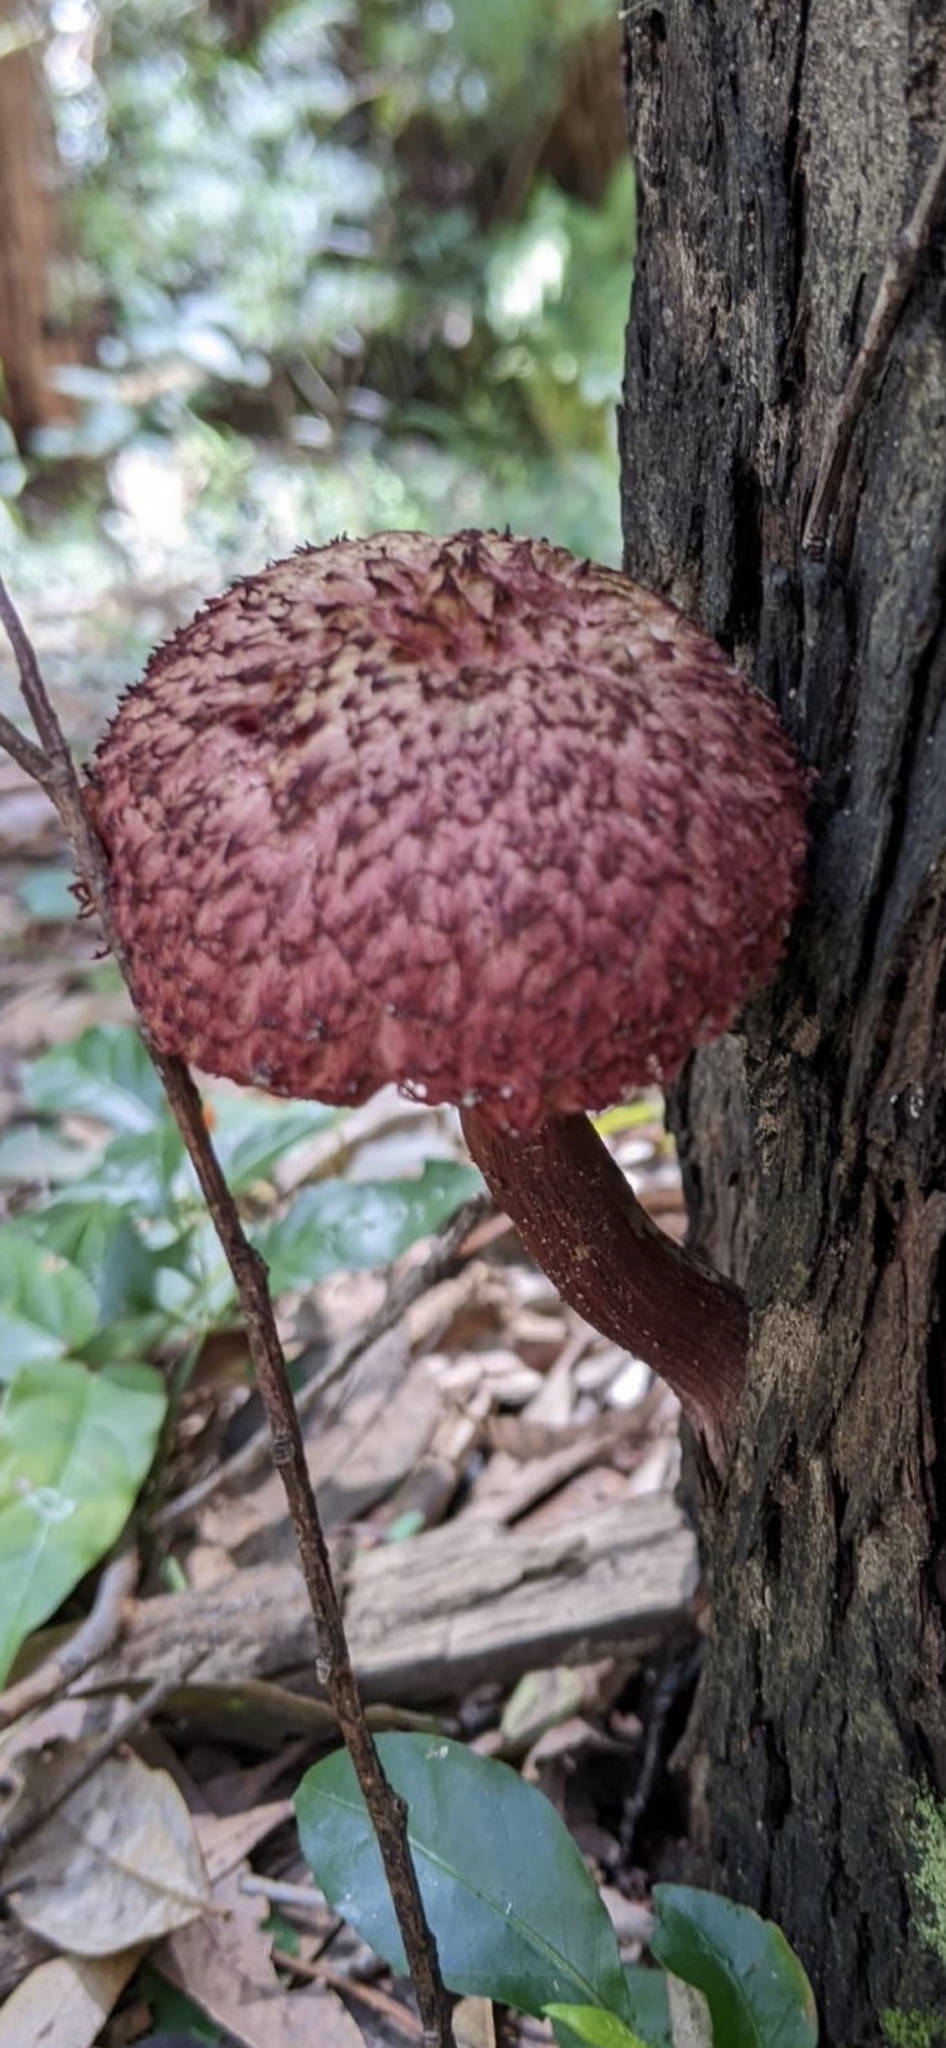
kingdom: Fungi
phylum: Basidiomycota
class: Agaricomycetes
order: Boletales
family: Boletaceae
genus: Boletellus
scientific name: Boletellus emodensis
